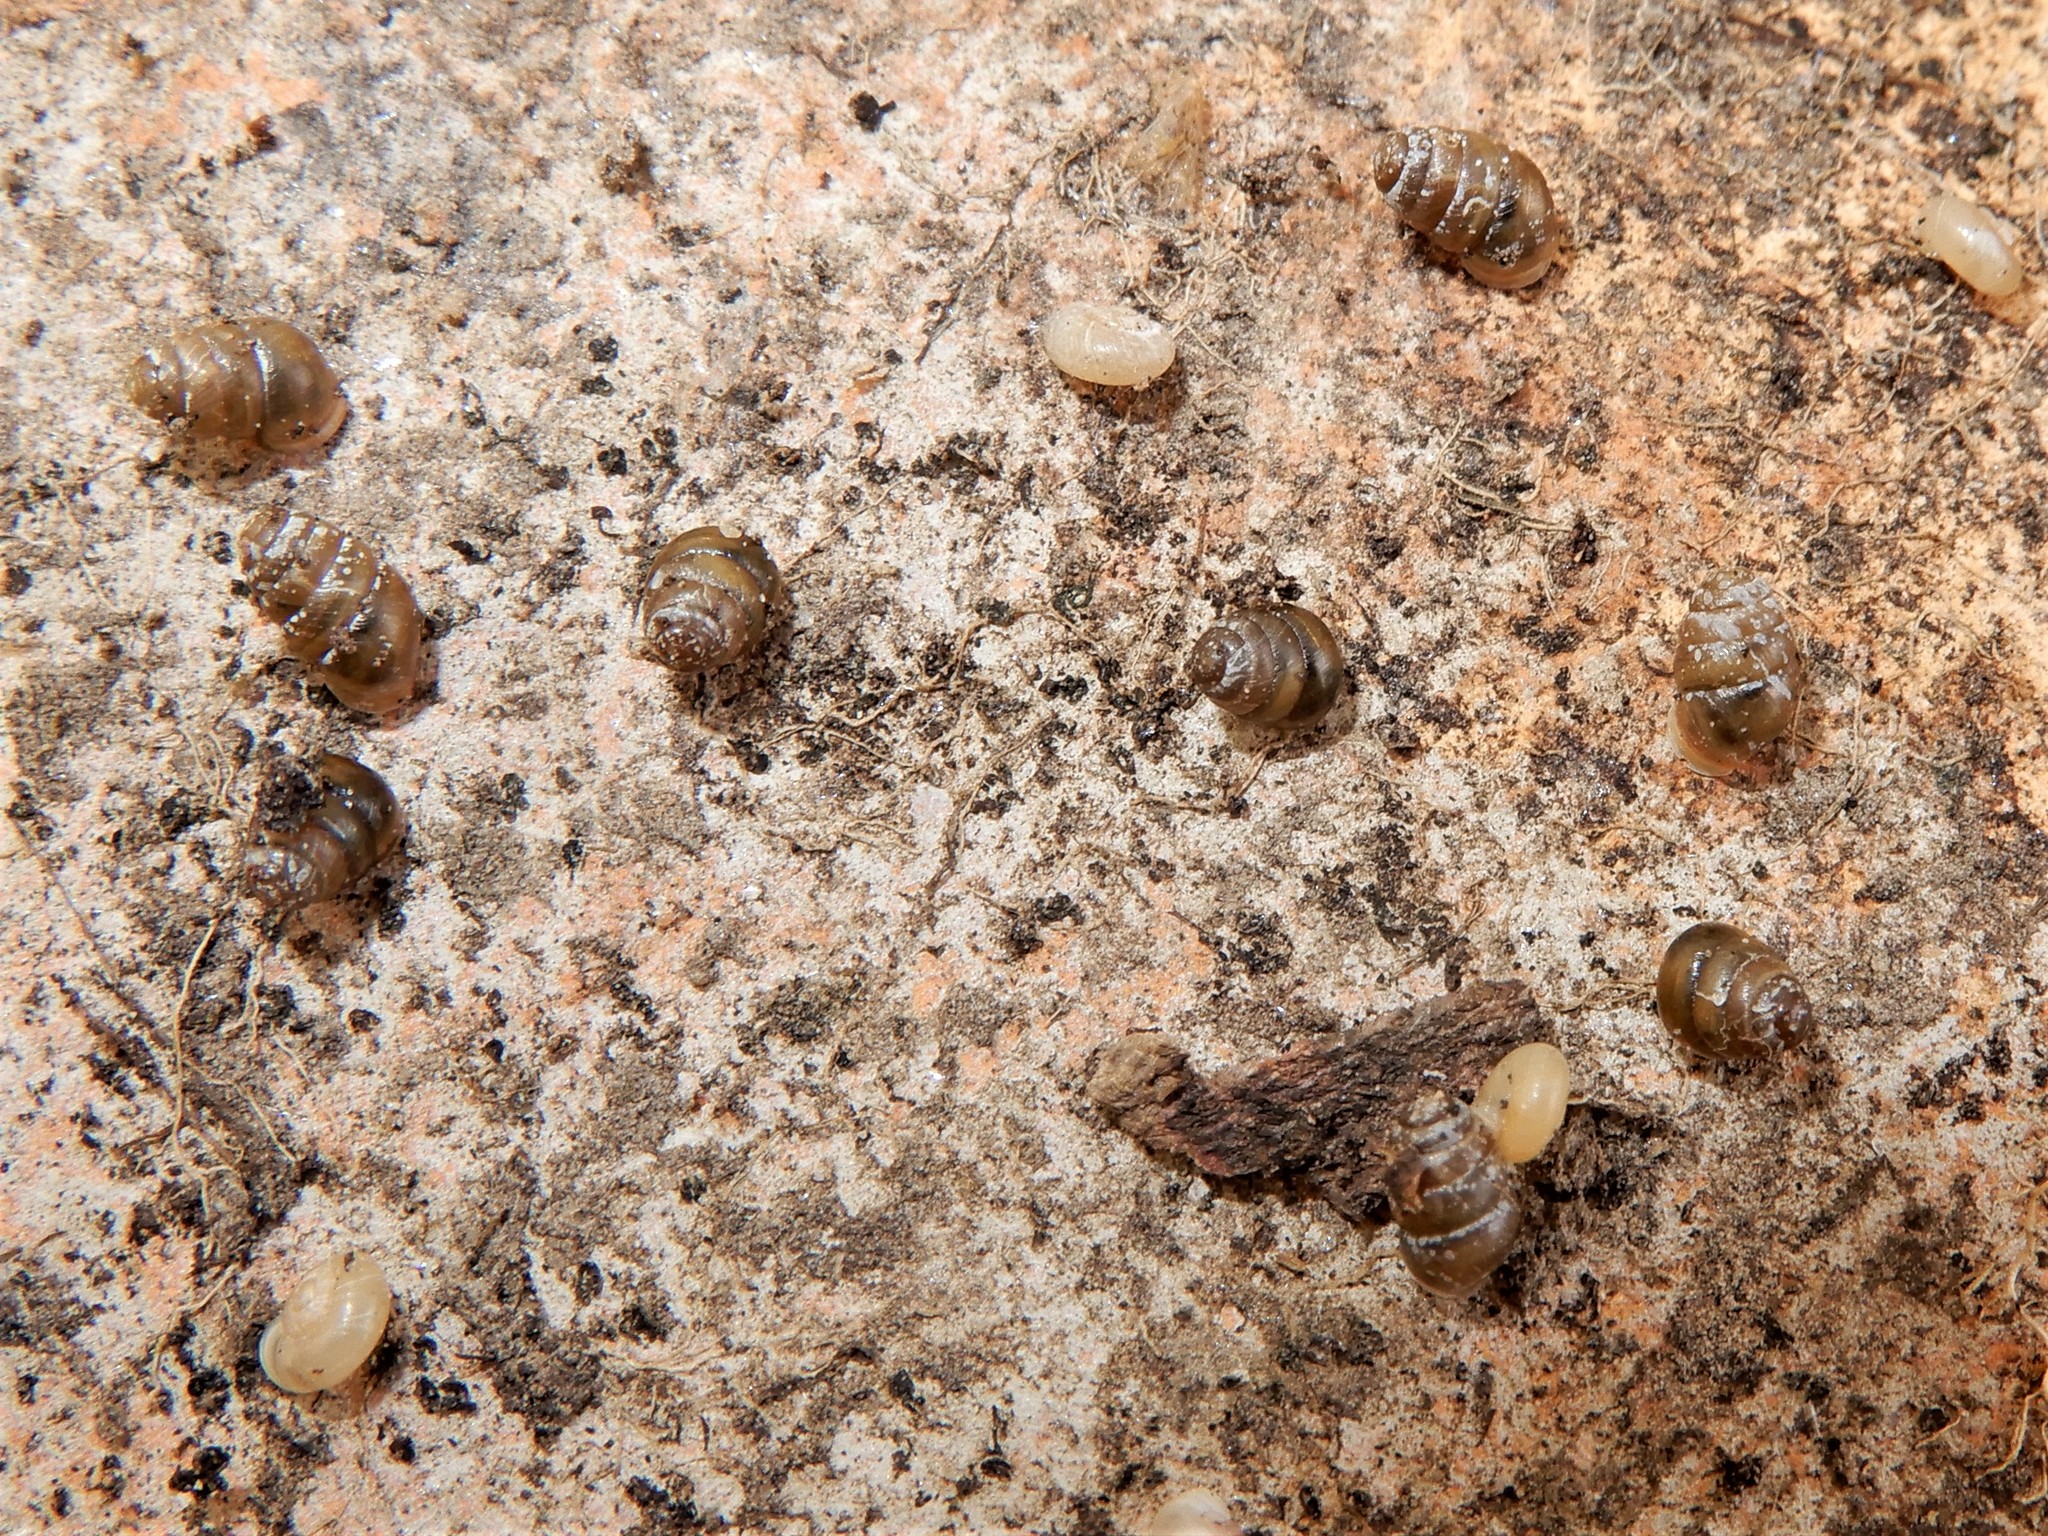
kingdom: Animalia
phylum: Mollusca
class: Gastropoda
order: Stylommatophora
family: Lauriidae
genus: Lauria
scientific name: Lauria cylindracea
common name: Common chrysalis snail
